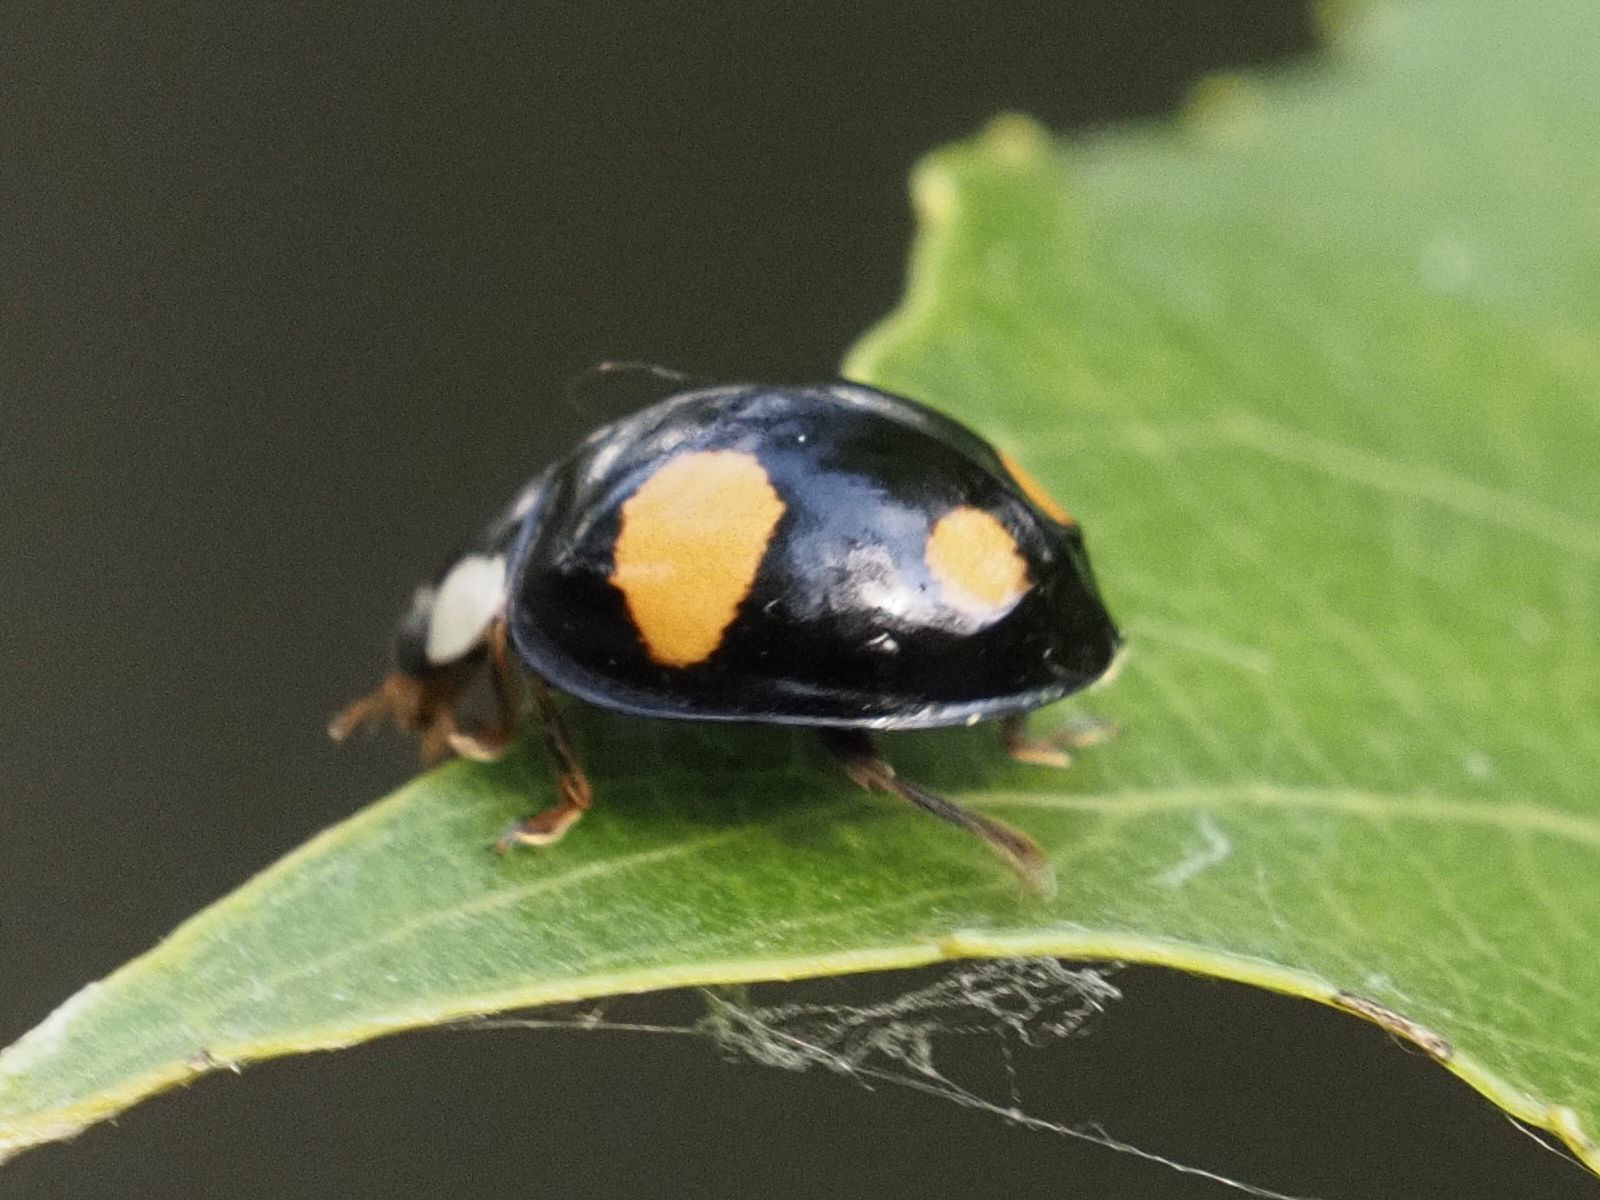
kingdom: Animalia
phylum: Arthropoda
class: Insecta
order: Coleoptera
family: Coccinellidae
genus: Harmonia
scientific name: Harmonia axyridis
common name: Harlequin ladybird
